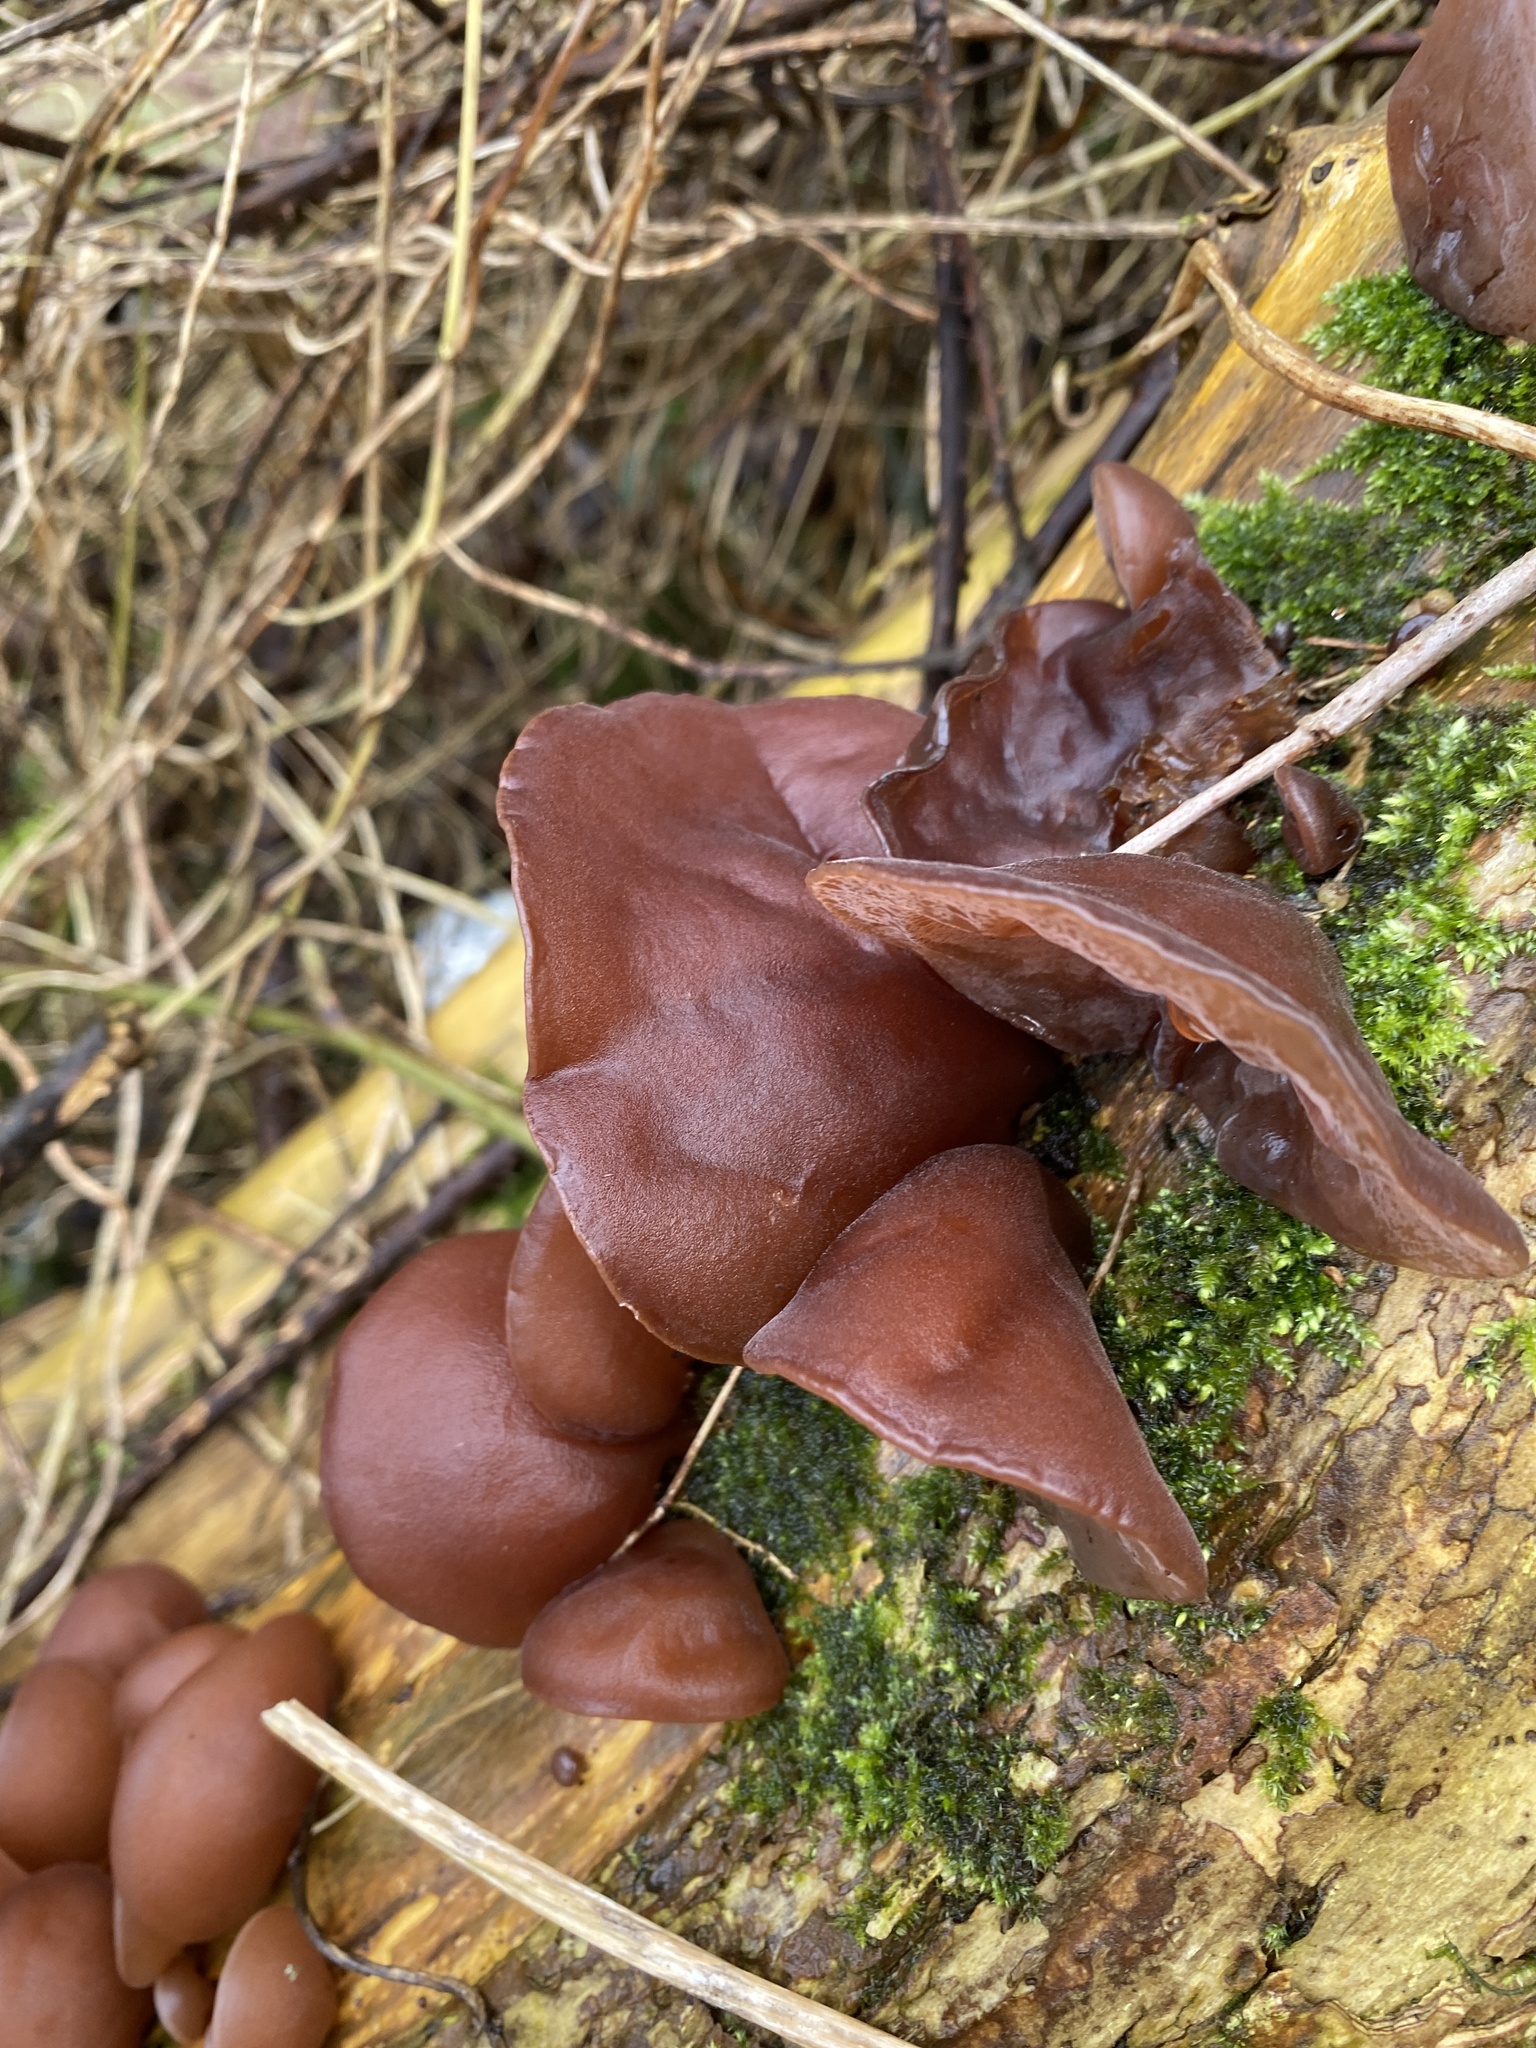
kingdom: Fungi
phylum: Basidiomycota
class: Agaricomycetes
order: Auriculariales
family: Auriculariaceae
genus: Auricularia
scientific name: Auricularia auricula-judae
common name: Jelly ear
